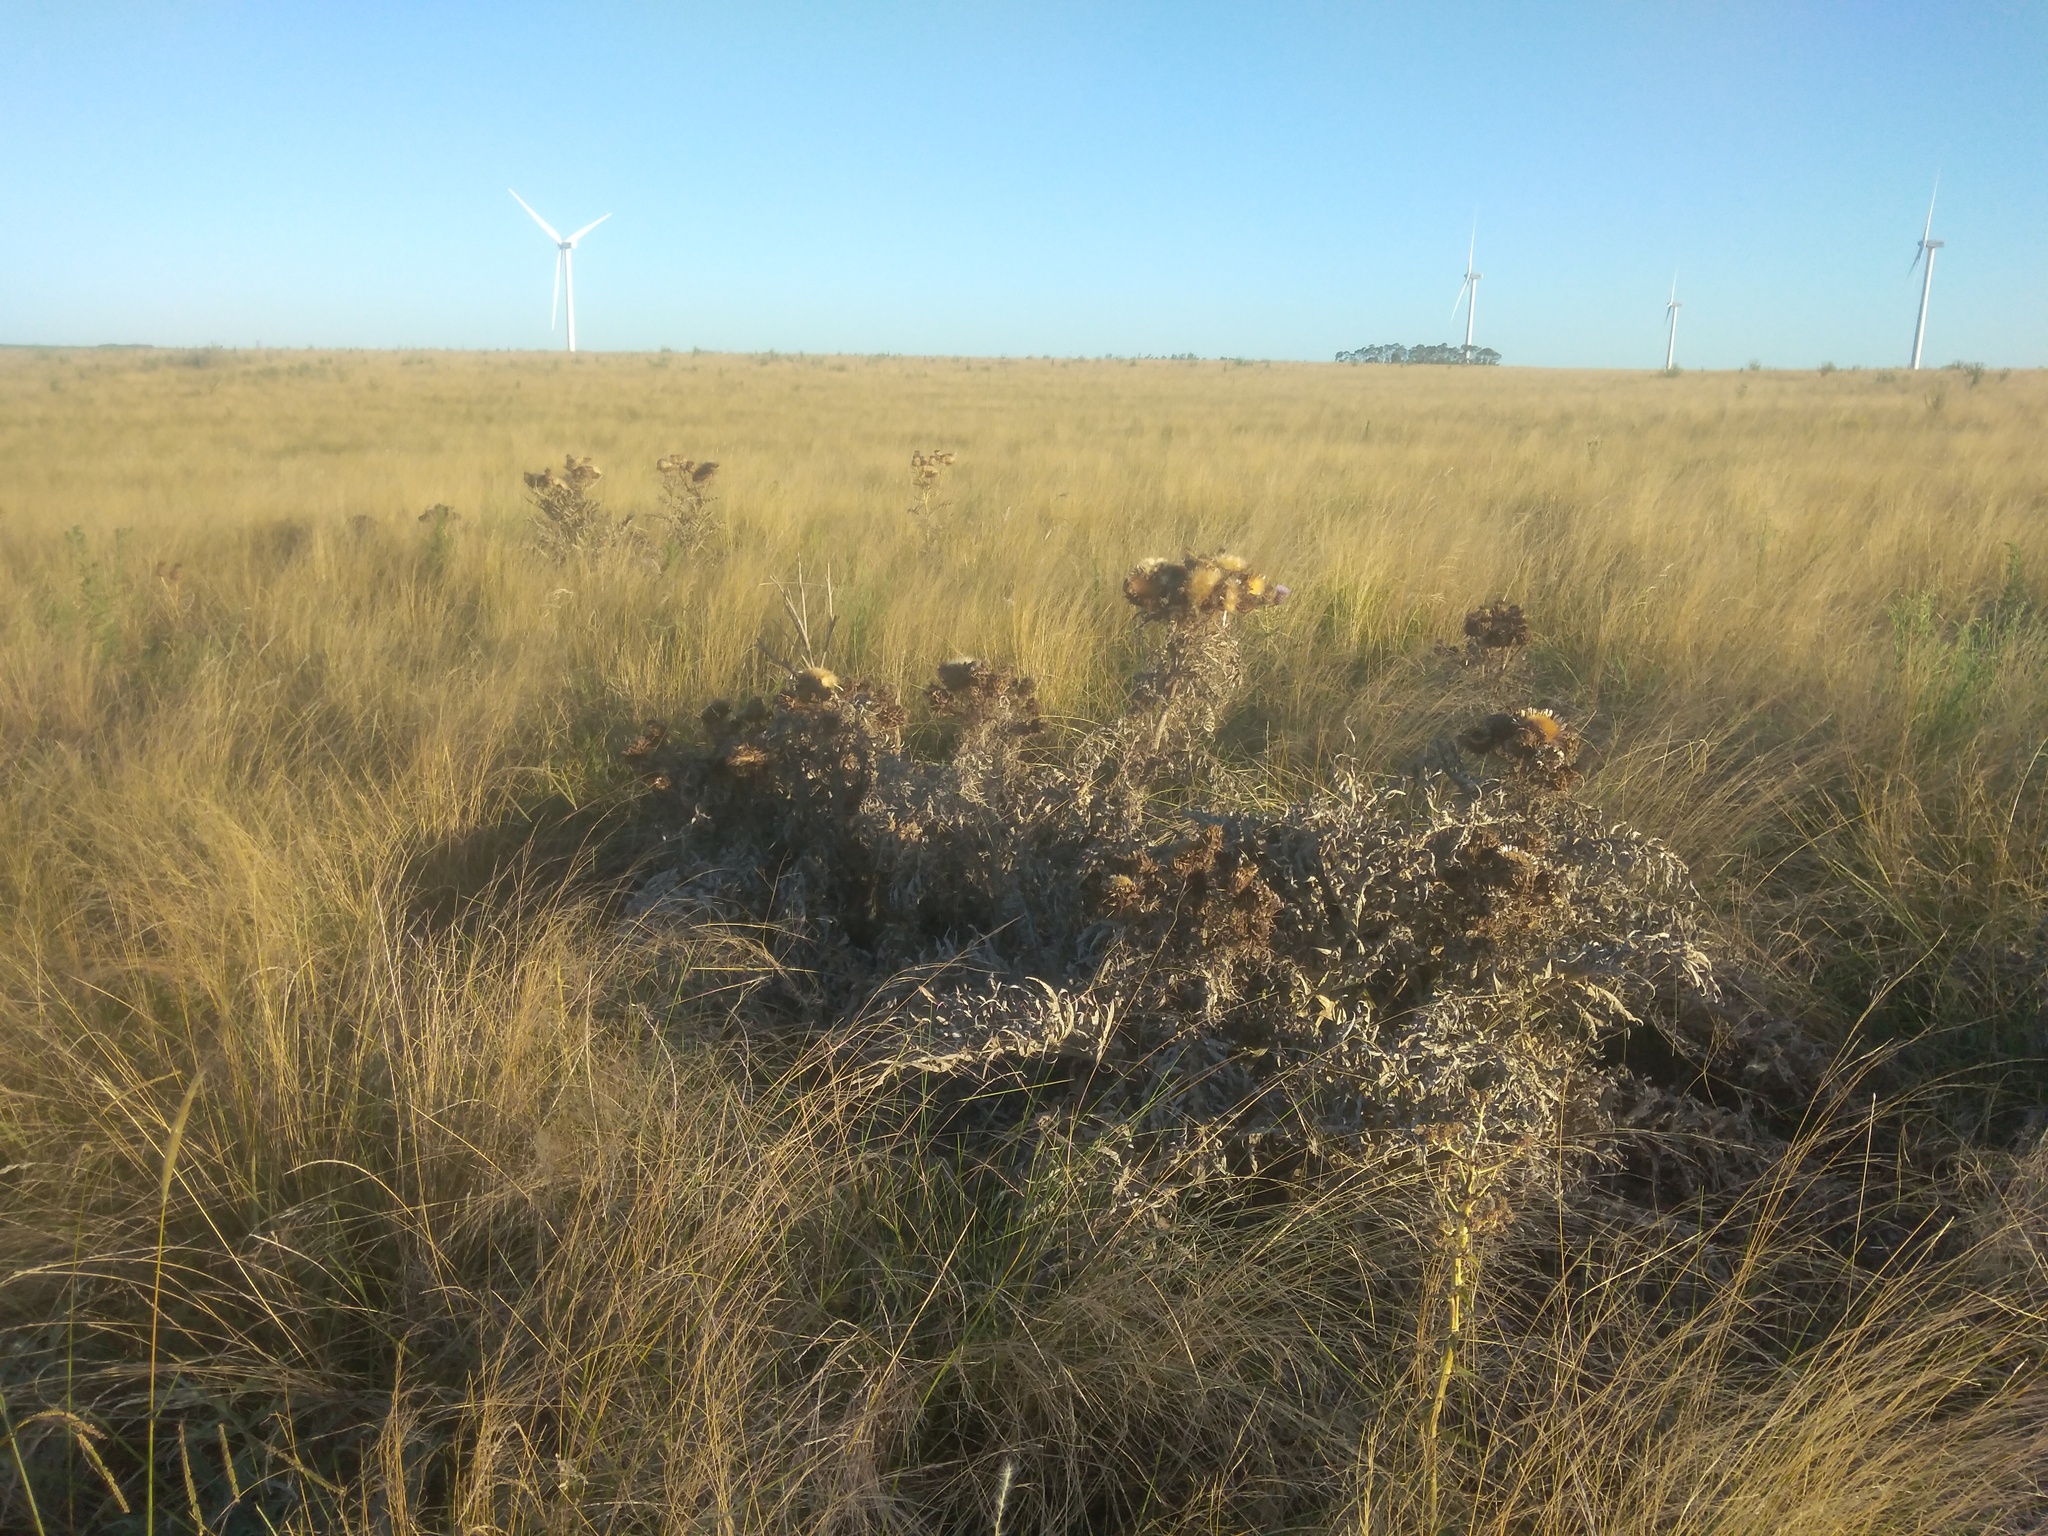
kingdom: Plantae
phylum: Tracheophyta
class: Magnoliopsida
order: Asterales
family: Asteraceae
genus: Cynara
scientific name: Cynara cardunculus
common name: Globe artichoke
